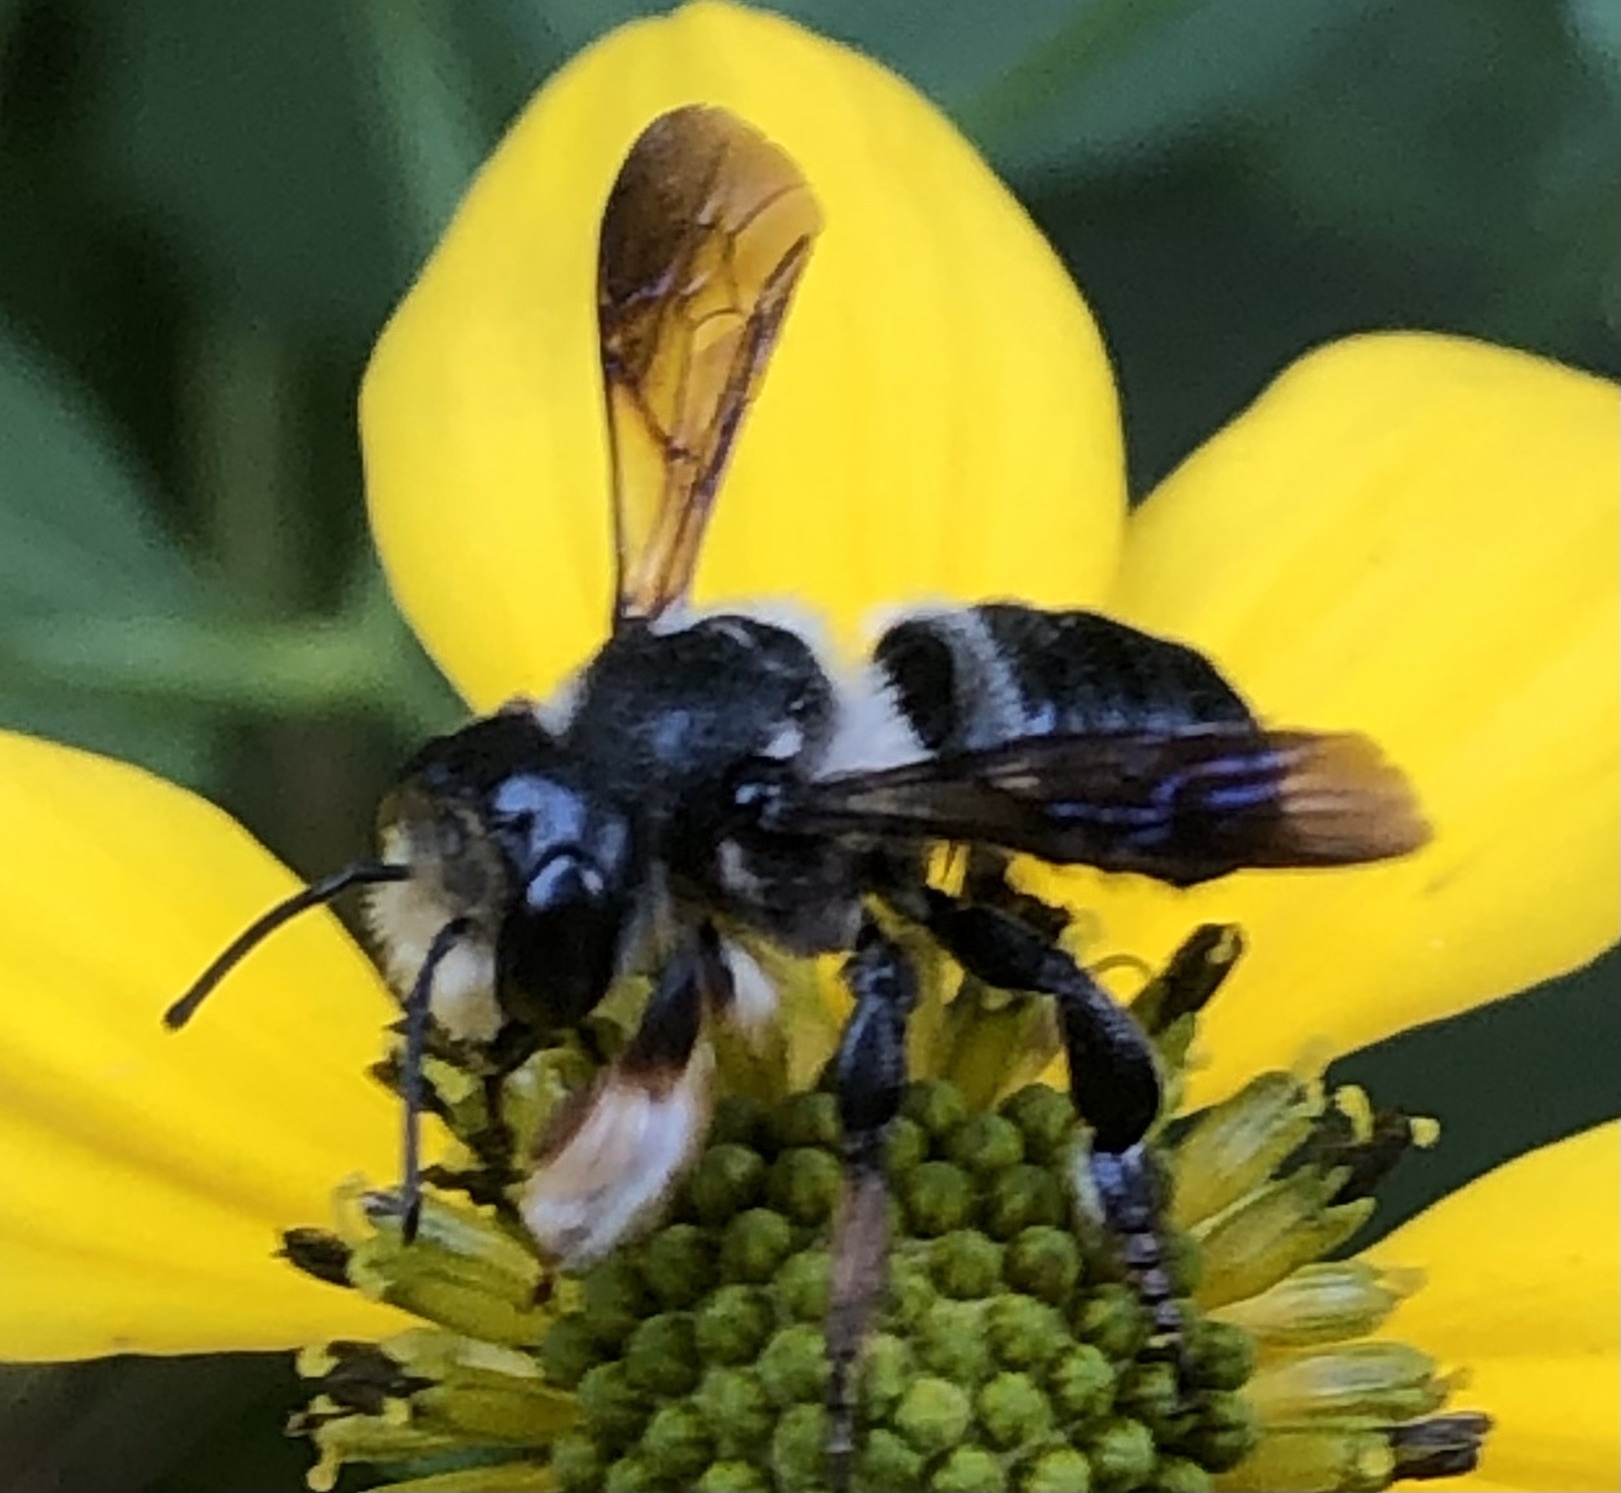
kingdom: Animalia
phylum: Arthropoda
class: Insecta
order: Hymenoptera
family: Megachilidae
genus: Megachile
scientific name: Megachile xylocopoides
